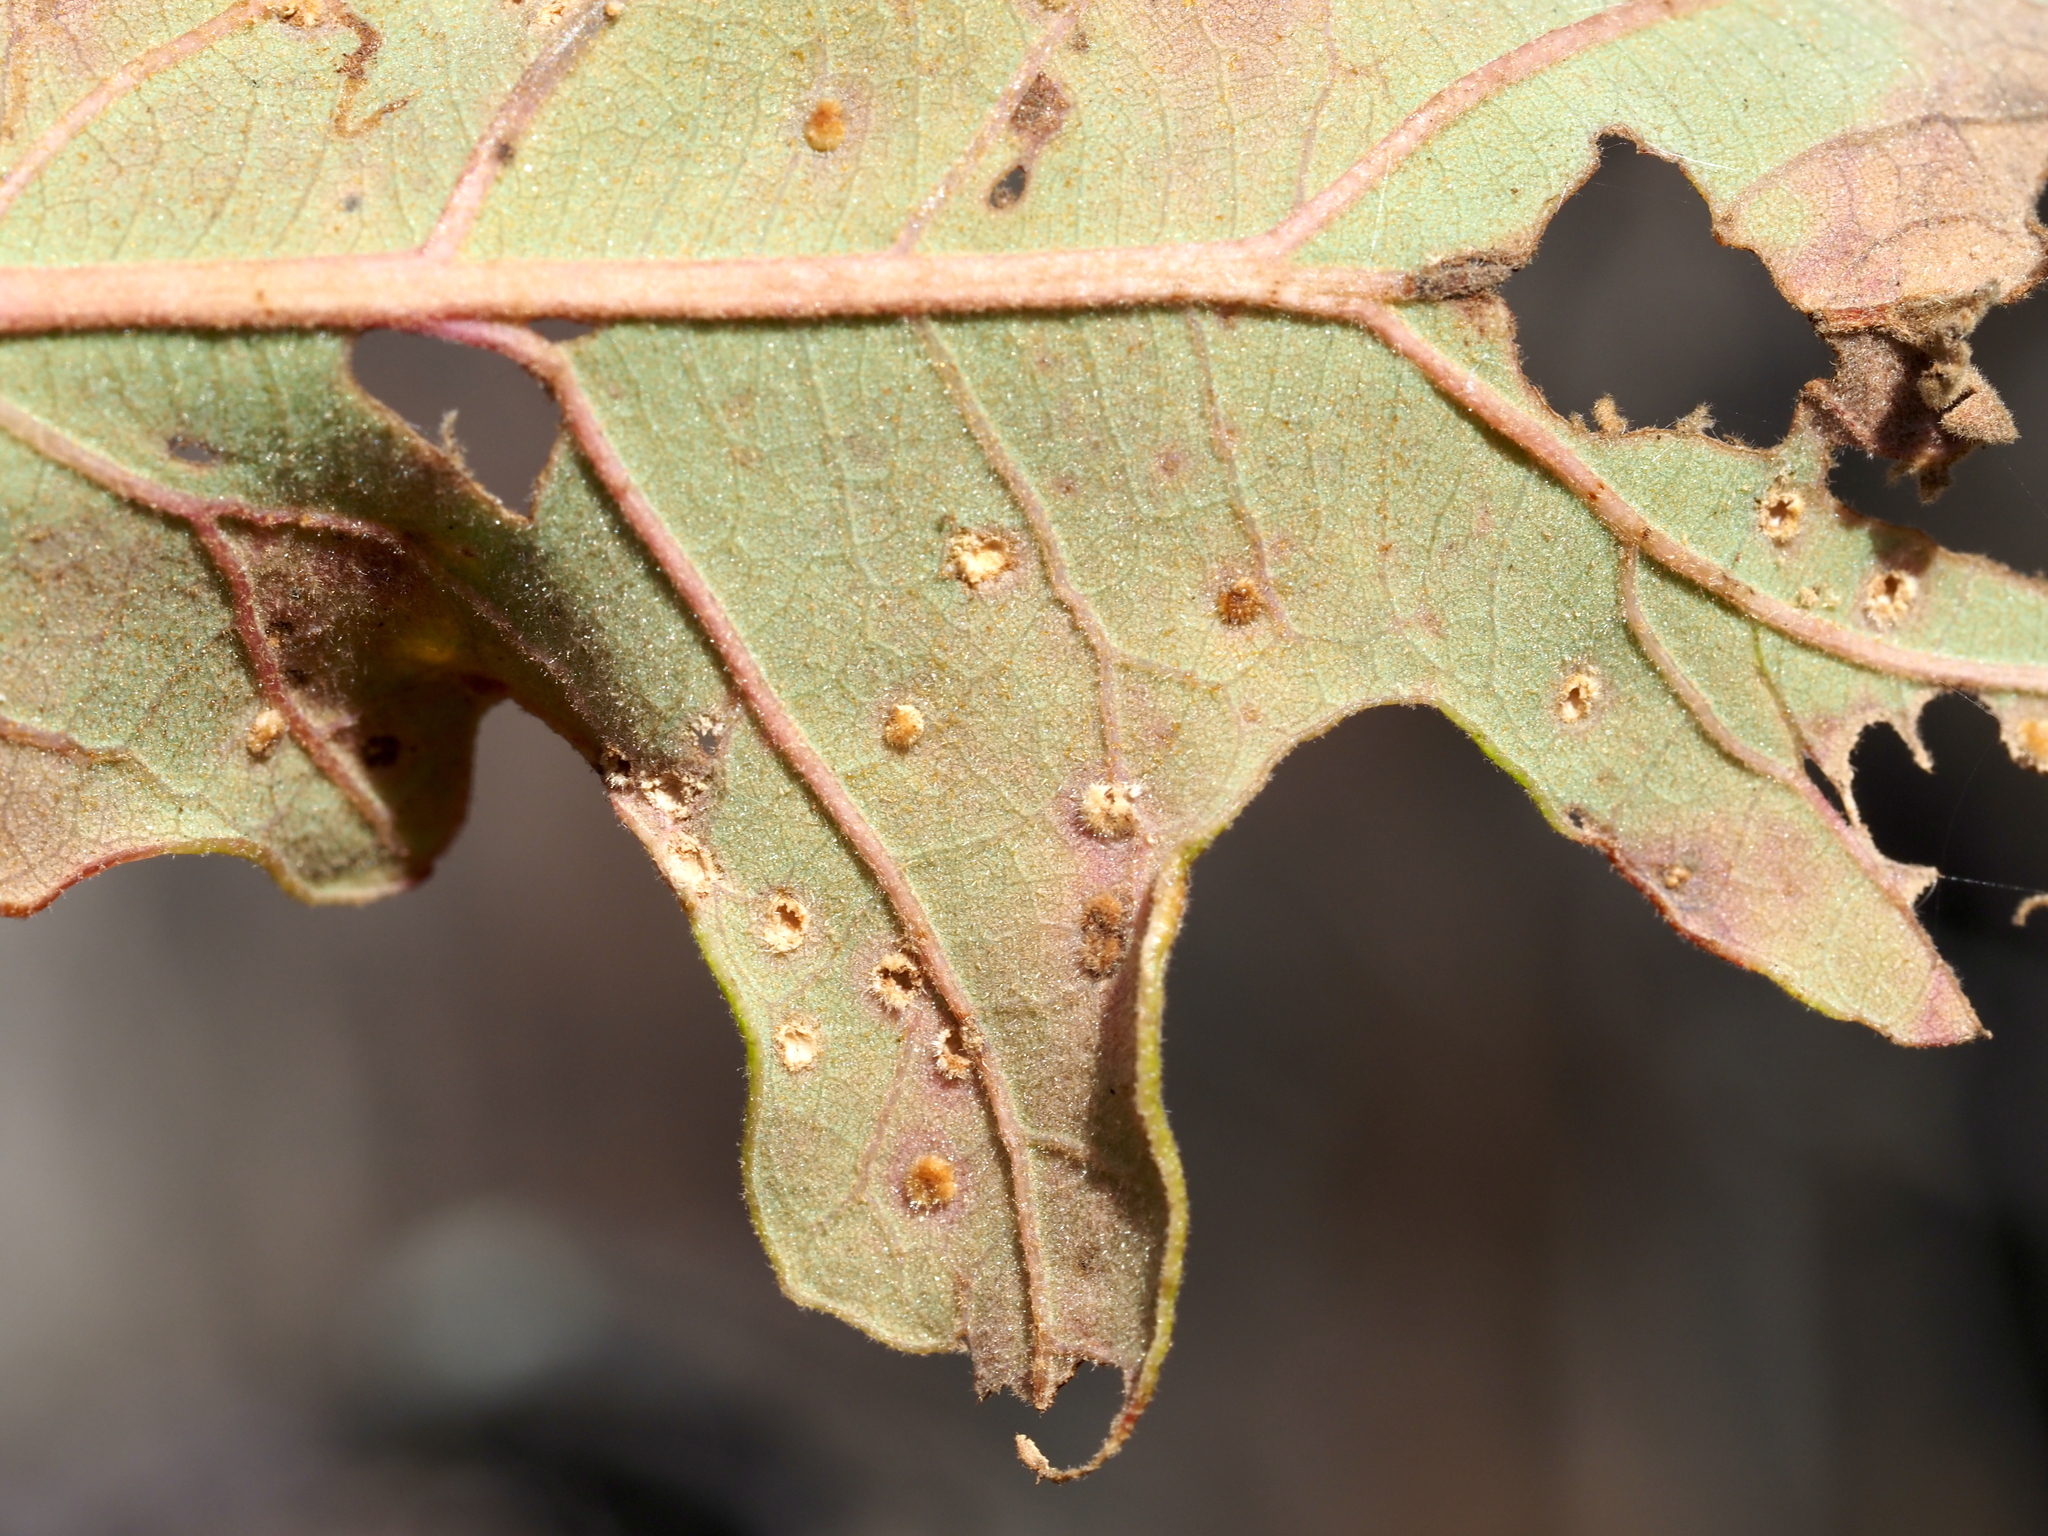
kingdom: Animalia
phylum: Arthropoda
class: Insecta
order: Hymenoptera
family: Cynipidae
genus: Neuroterus
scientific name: Neuroterus saltarius
